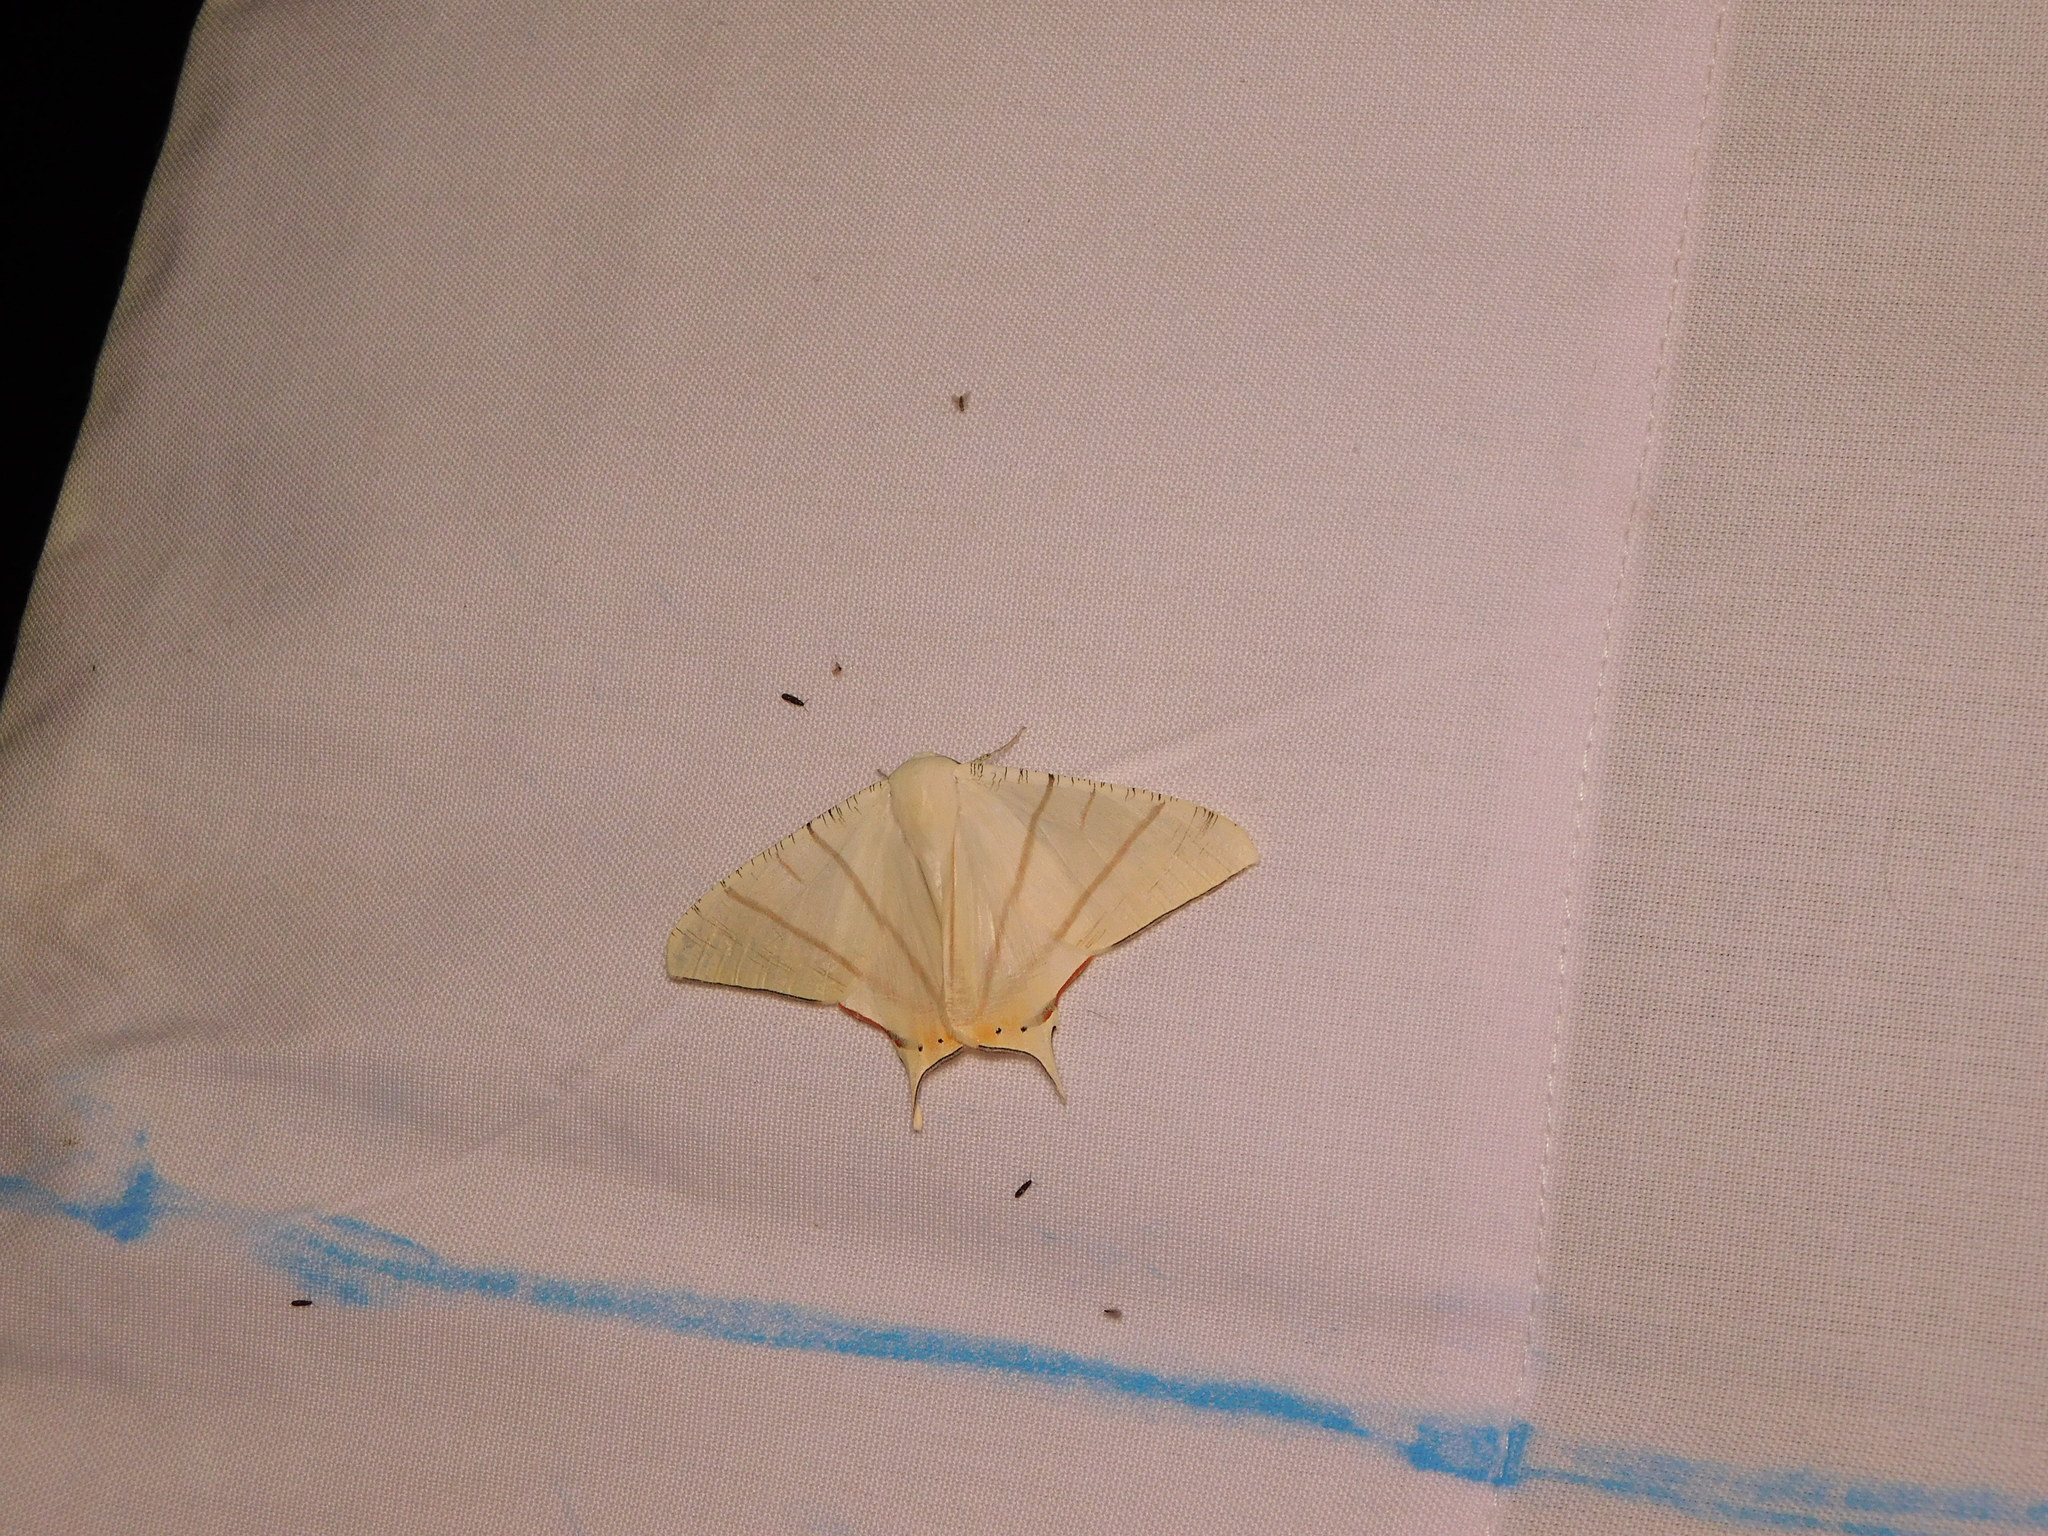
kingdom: Animalia
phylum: Arthropoda
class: Insecta
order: Lepidoptera
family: Geometridae
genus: Ourapteryx
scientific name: Ourapteryx marginata
